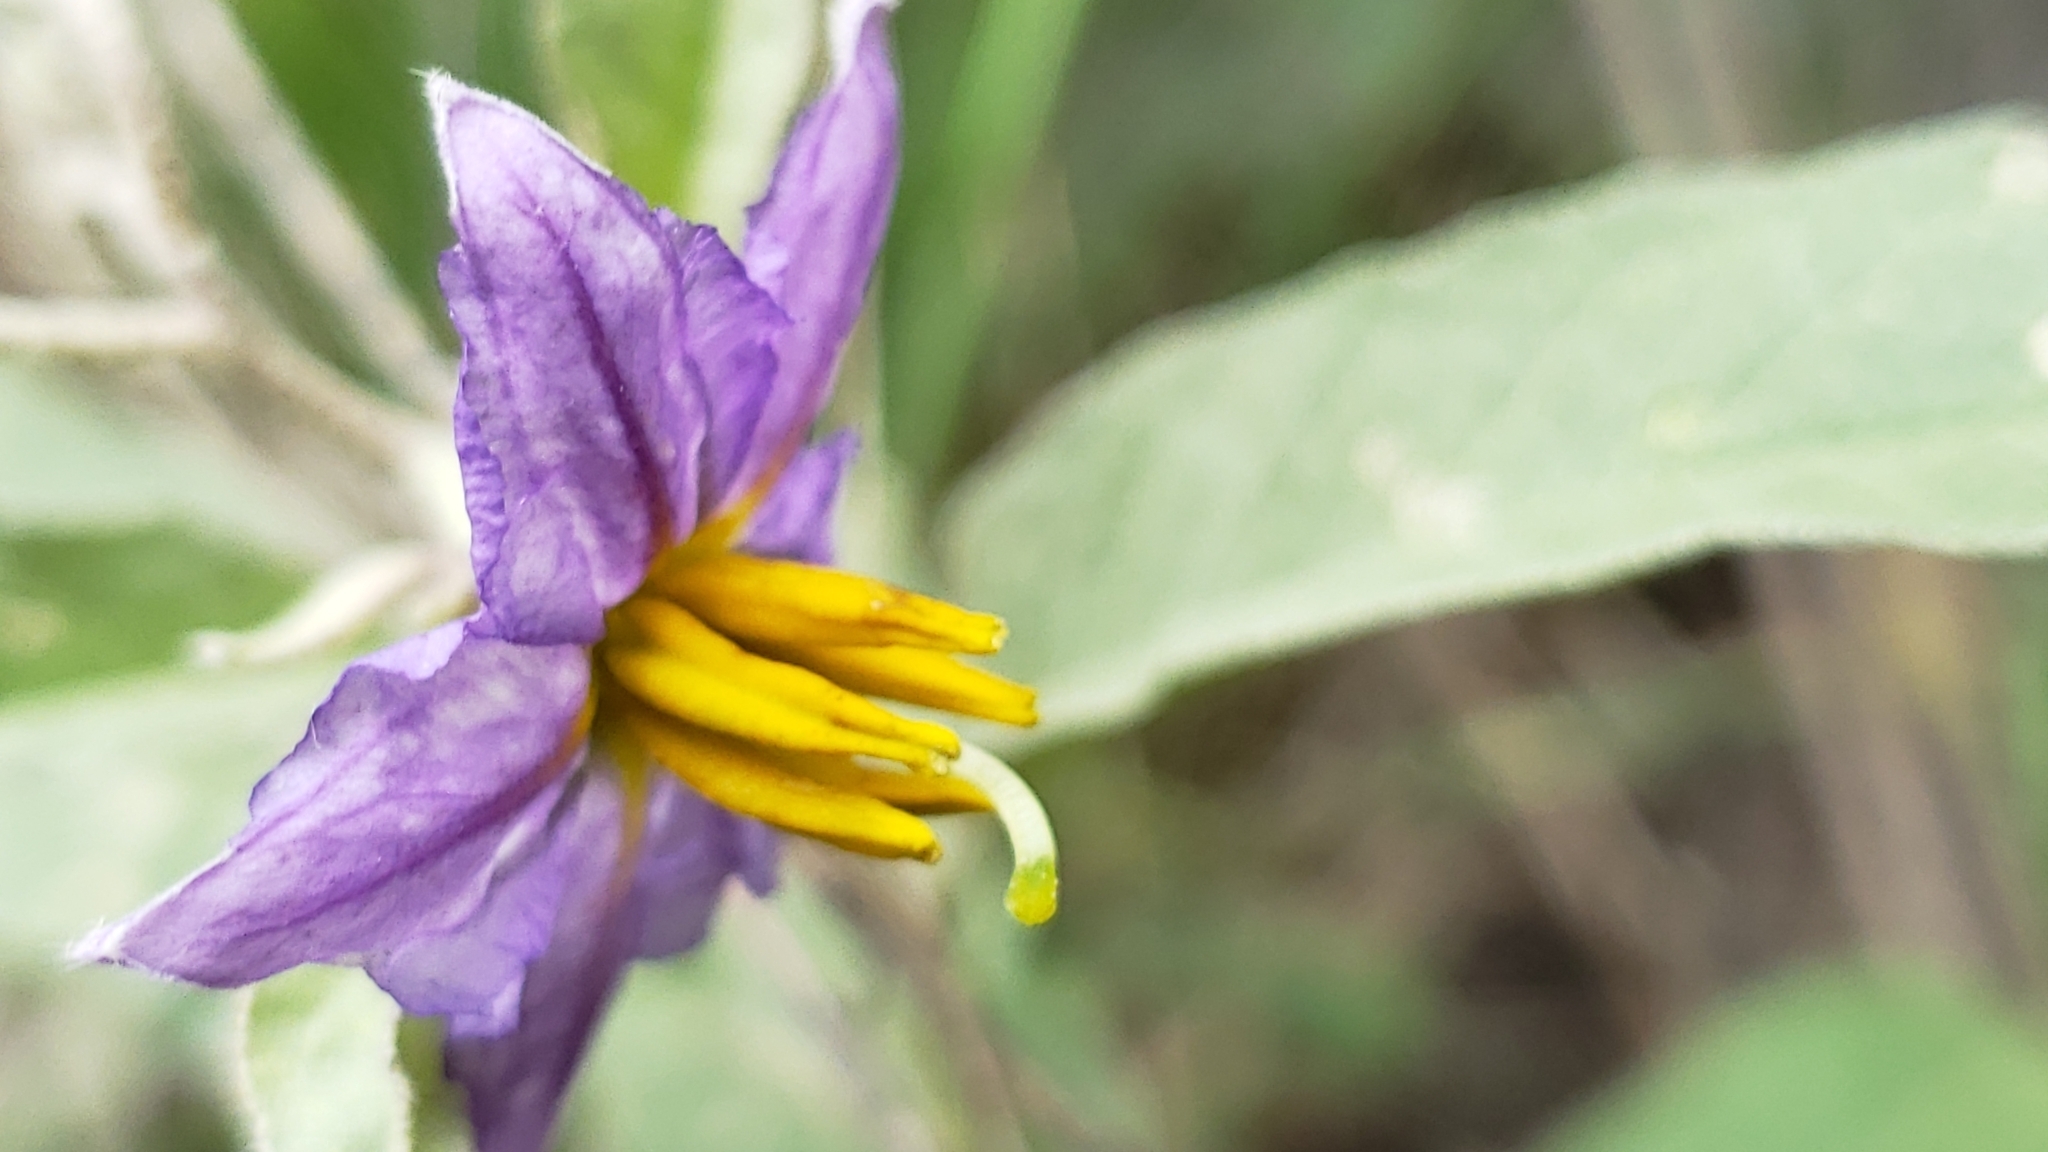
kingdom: Plantae
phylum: Tracheophyta
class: Magnoliopsida
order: Solanales
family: Solanaceae
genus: Solanum
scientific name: Solanum elaeagnifolium
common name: Silverleaf nightshade
